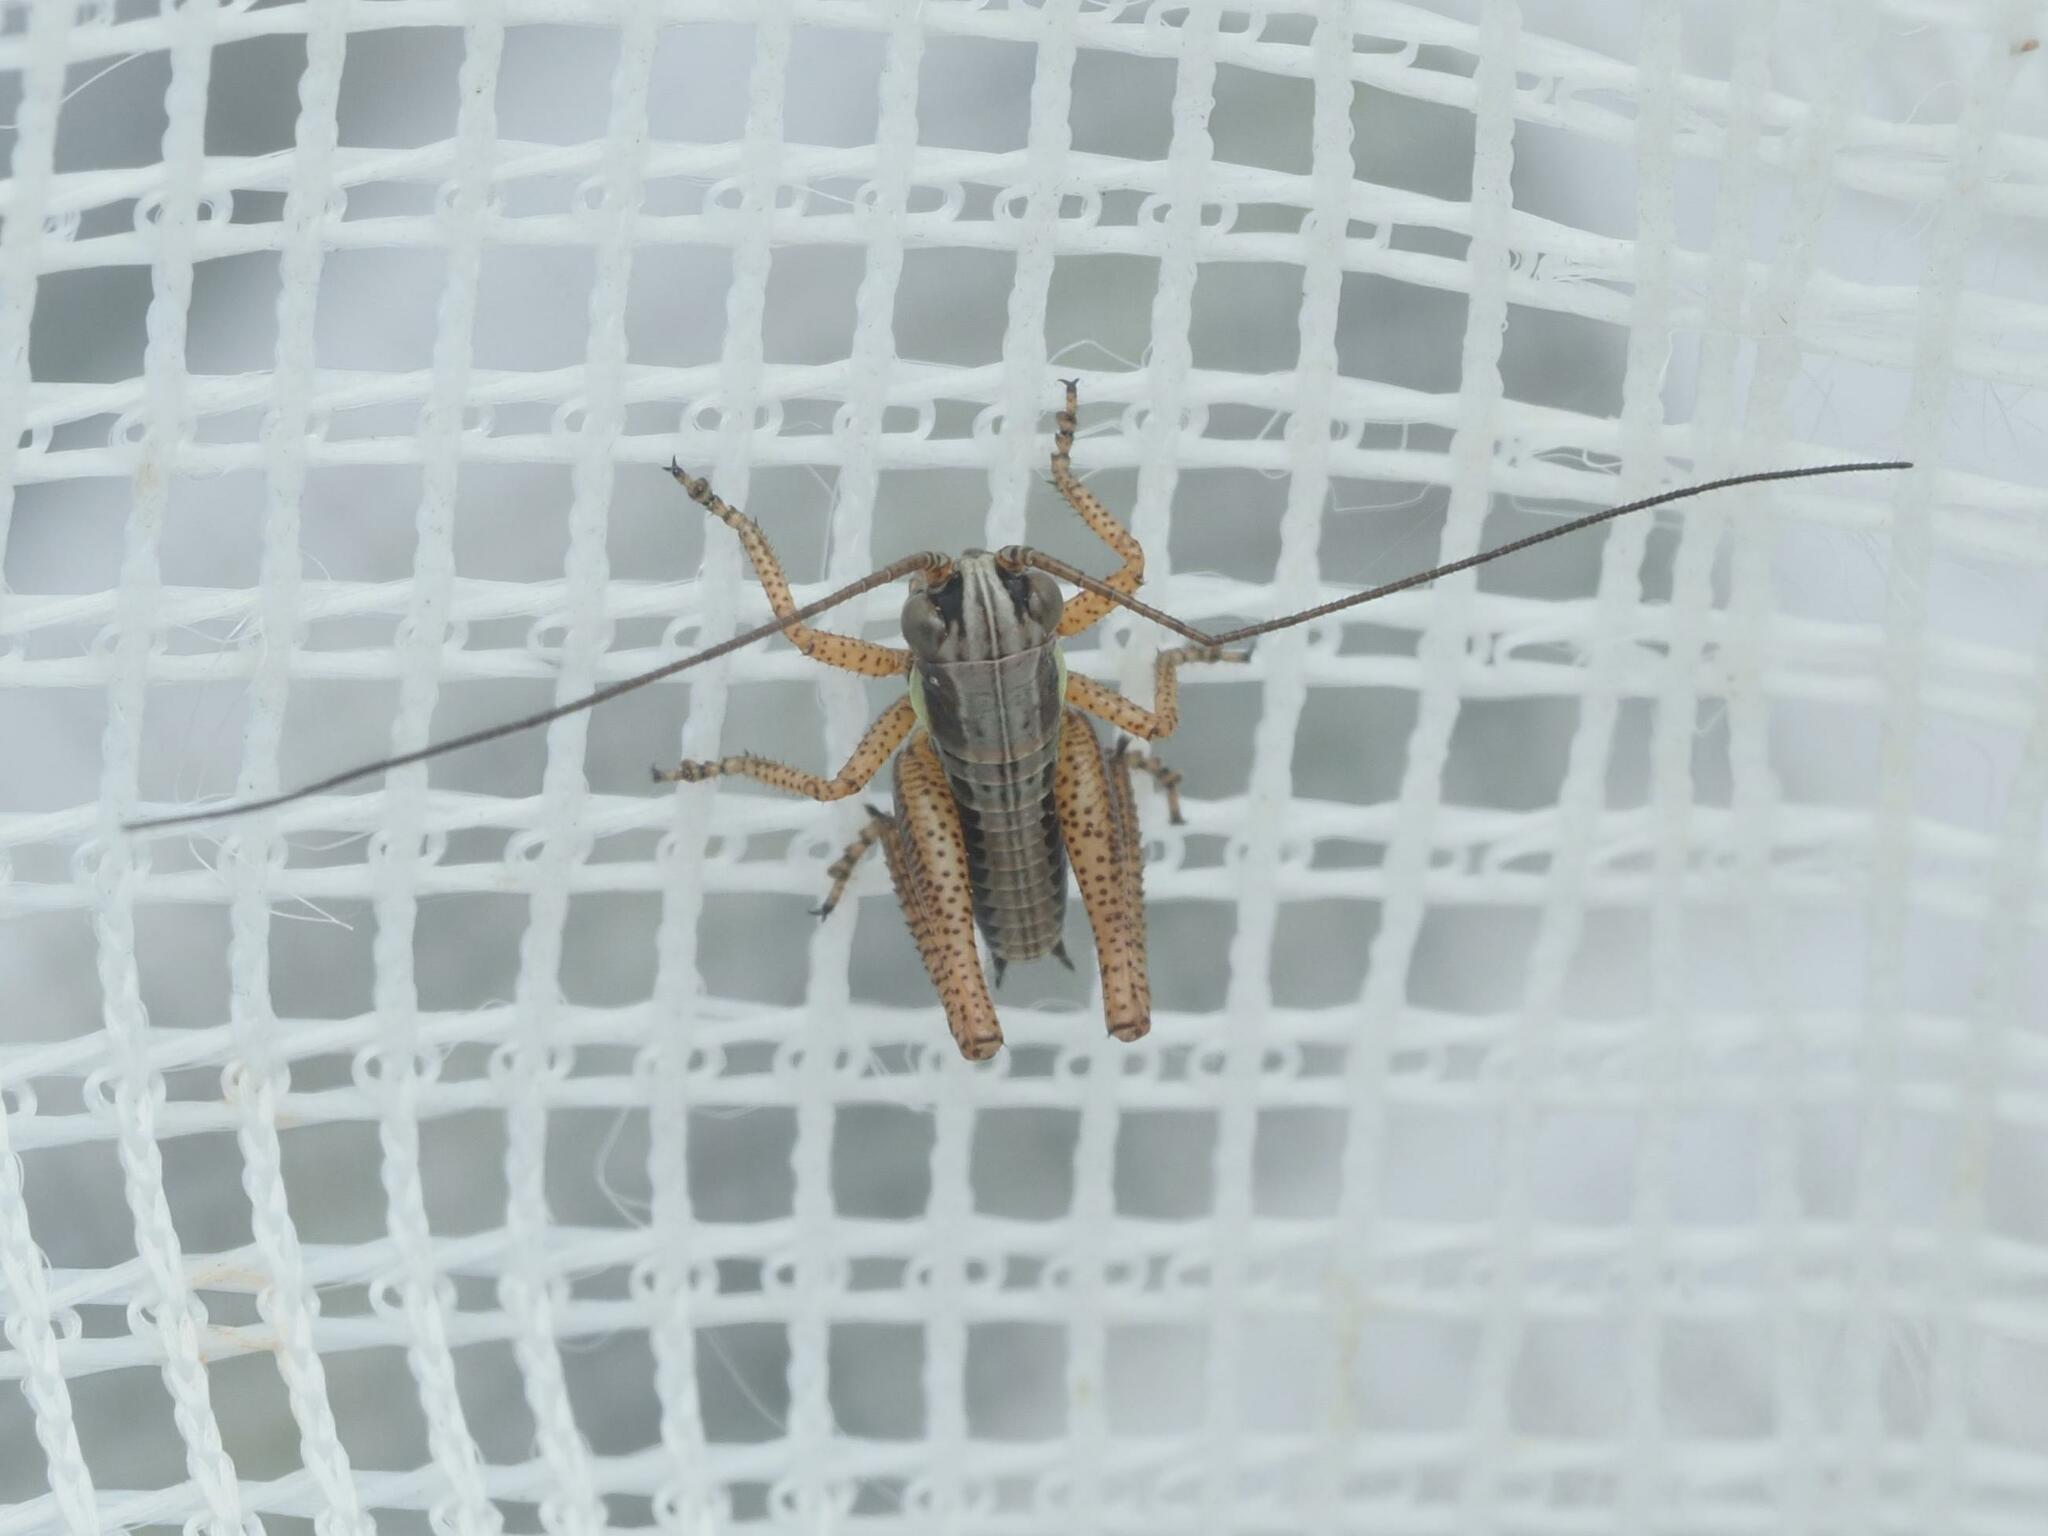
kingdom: Animalia
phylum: Arthropoda
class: Insecta
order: Orthoptera
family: Tettigoniidae
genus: Roeseliana
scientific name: Roeseliana roeselii
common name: Roesel's bush cricket
